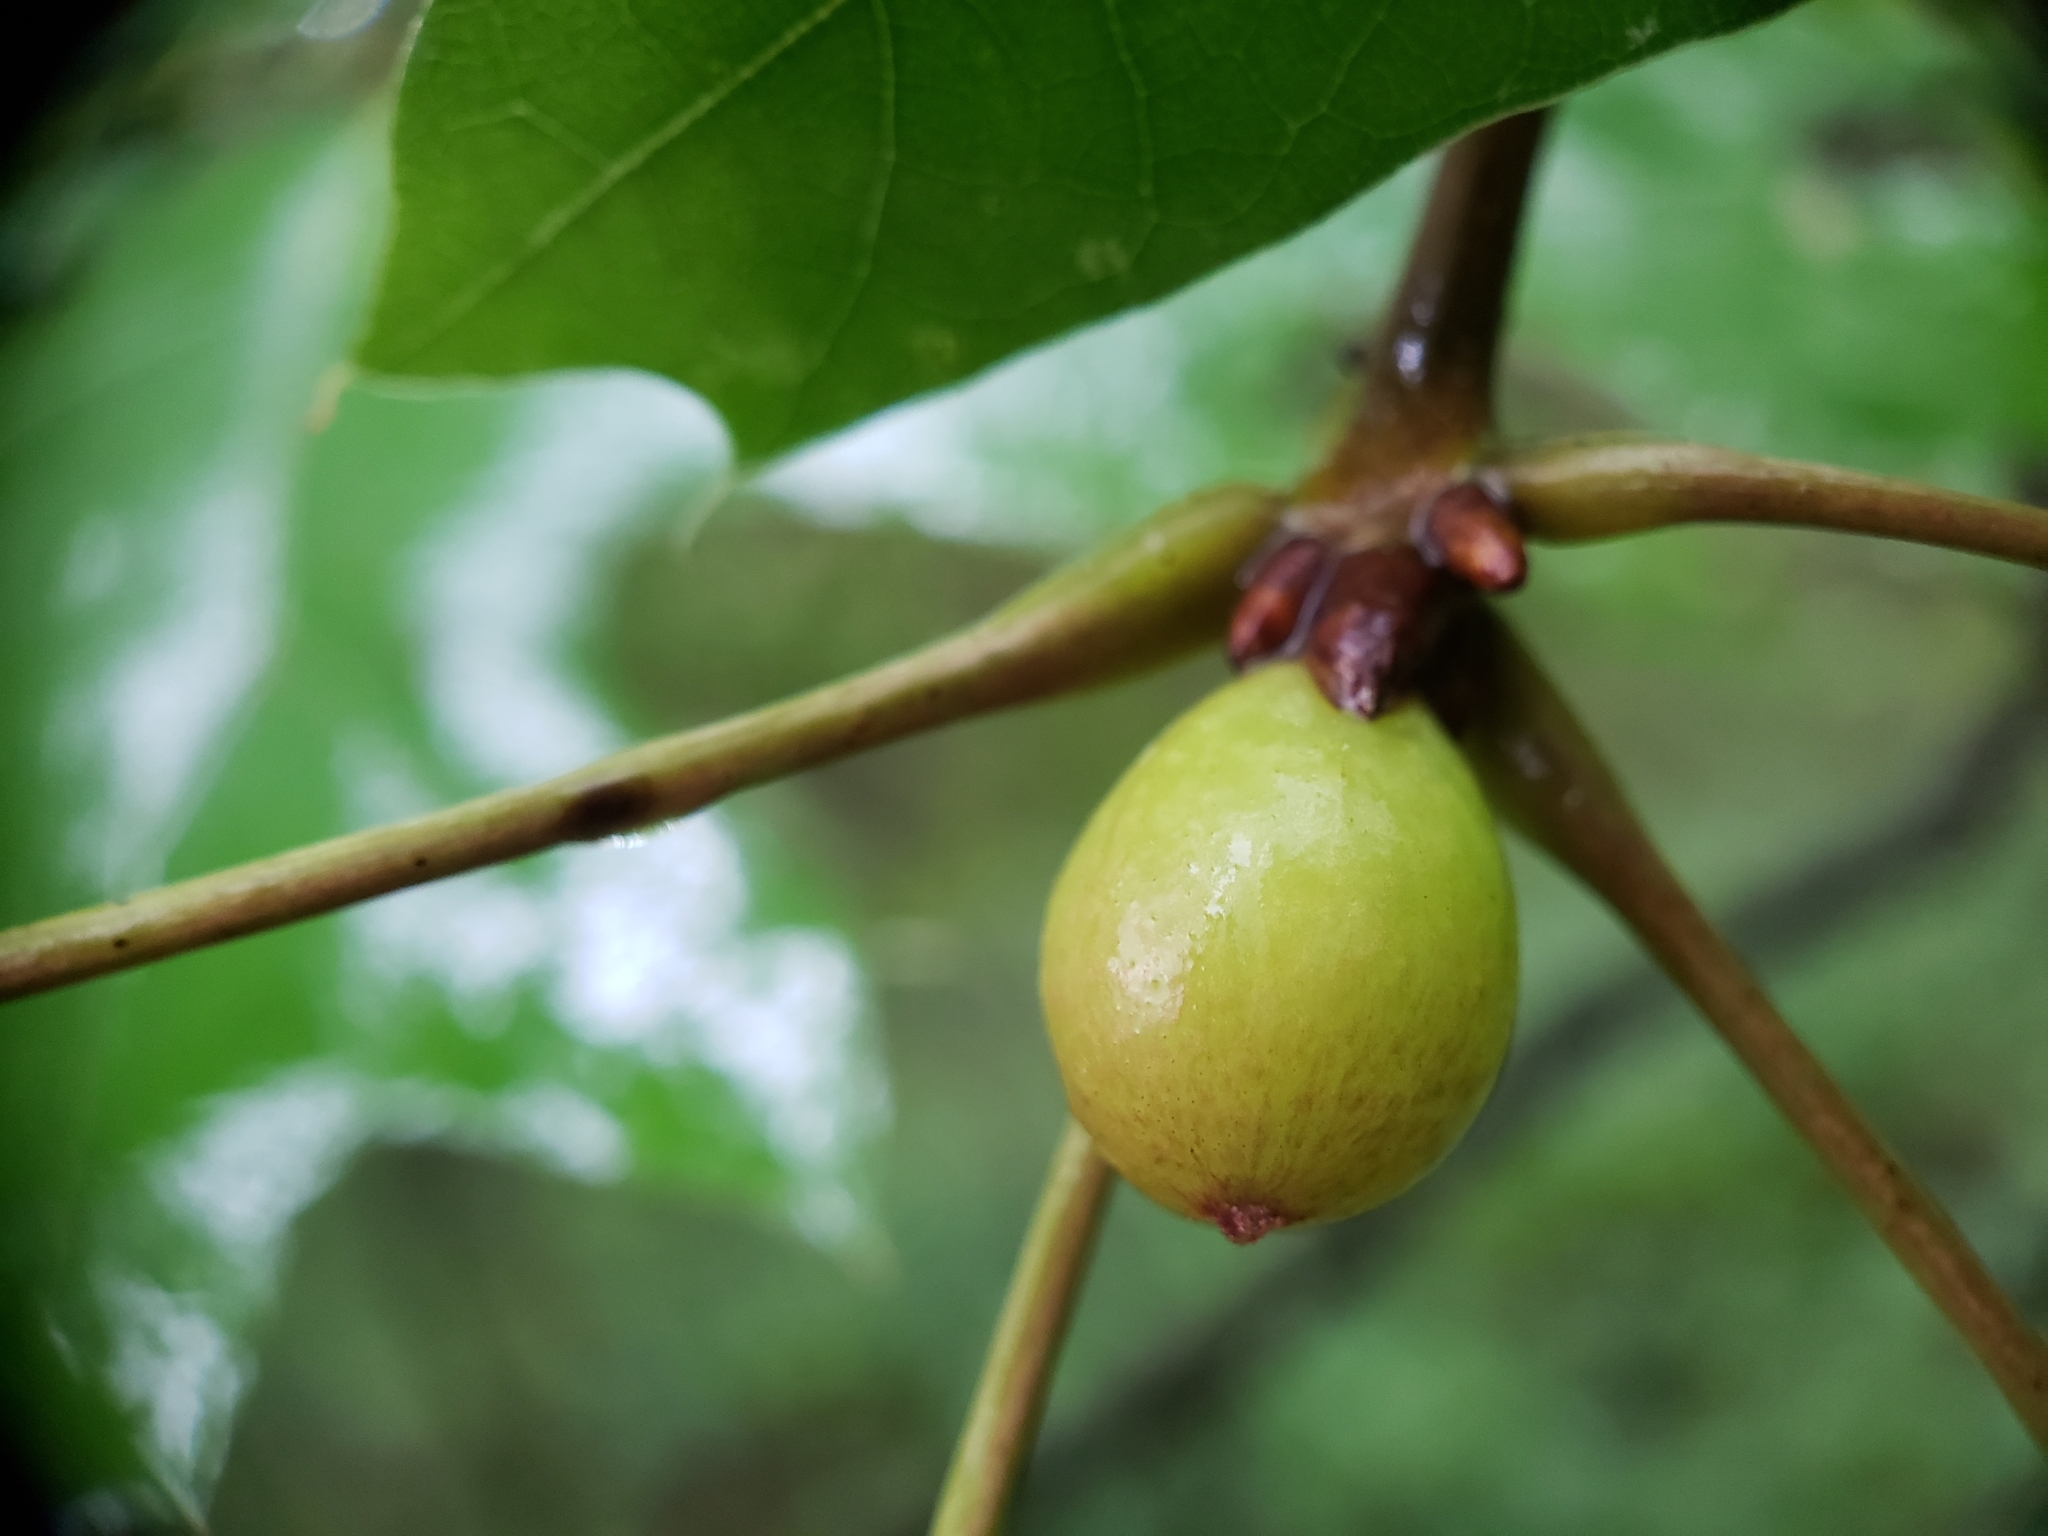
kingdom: Animalia
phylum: Arthropoda
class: Insecta
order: Hymenoptera
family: Cynipidae
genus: Amphibolips
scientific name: Amphibolips
